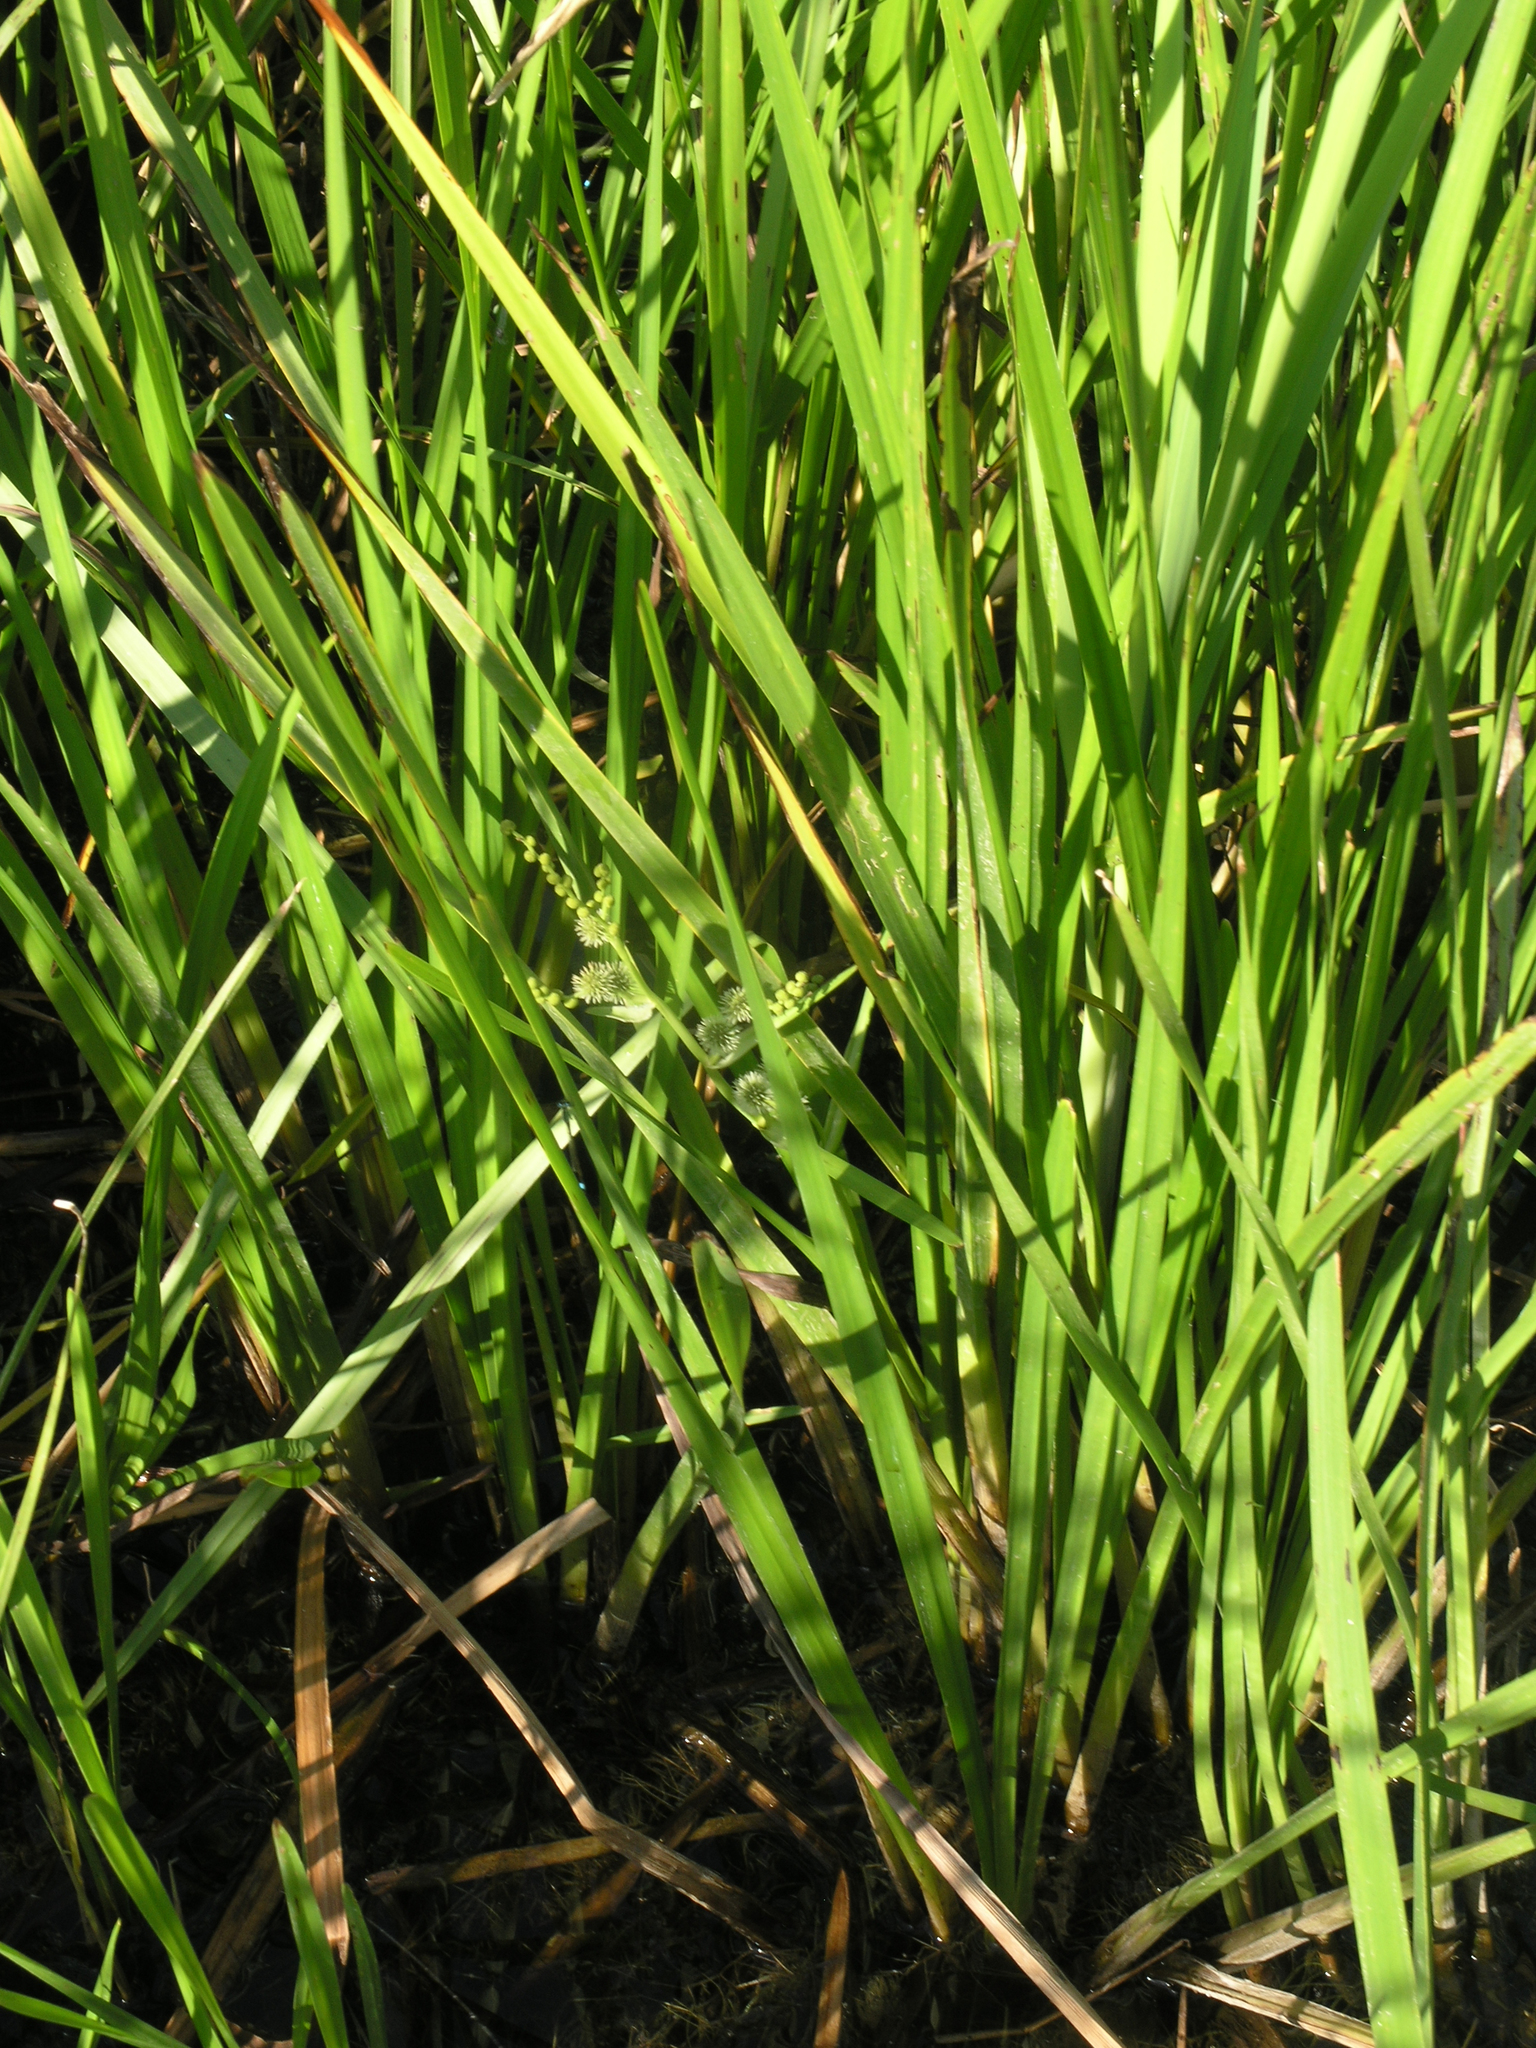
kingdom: Plantae
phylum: Tracheophyta
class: Liliopsida
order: Poales
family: Typhaceae
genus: Sparganium
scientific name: Sparganium erectum
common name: Branched bur-reed
